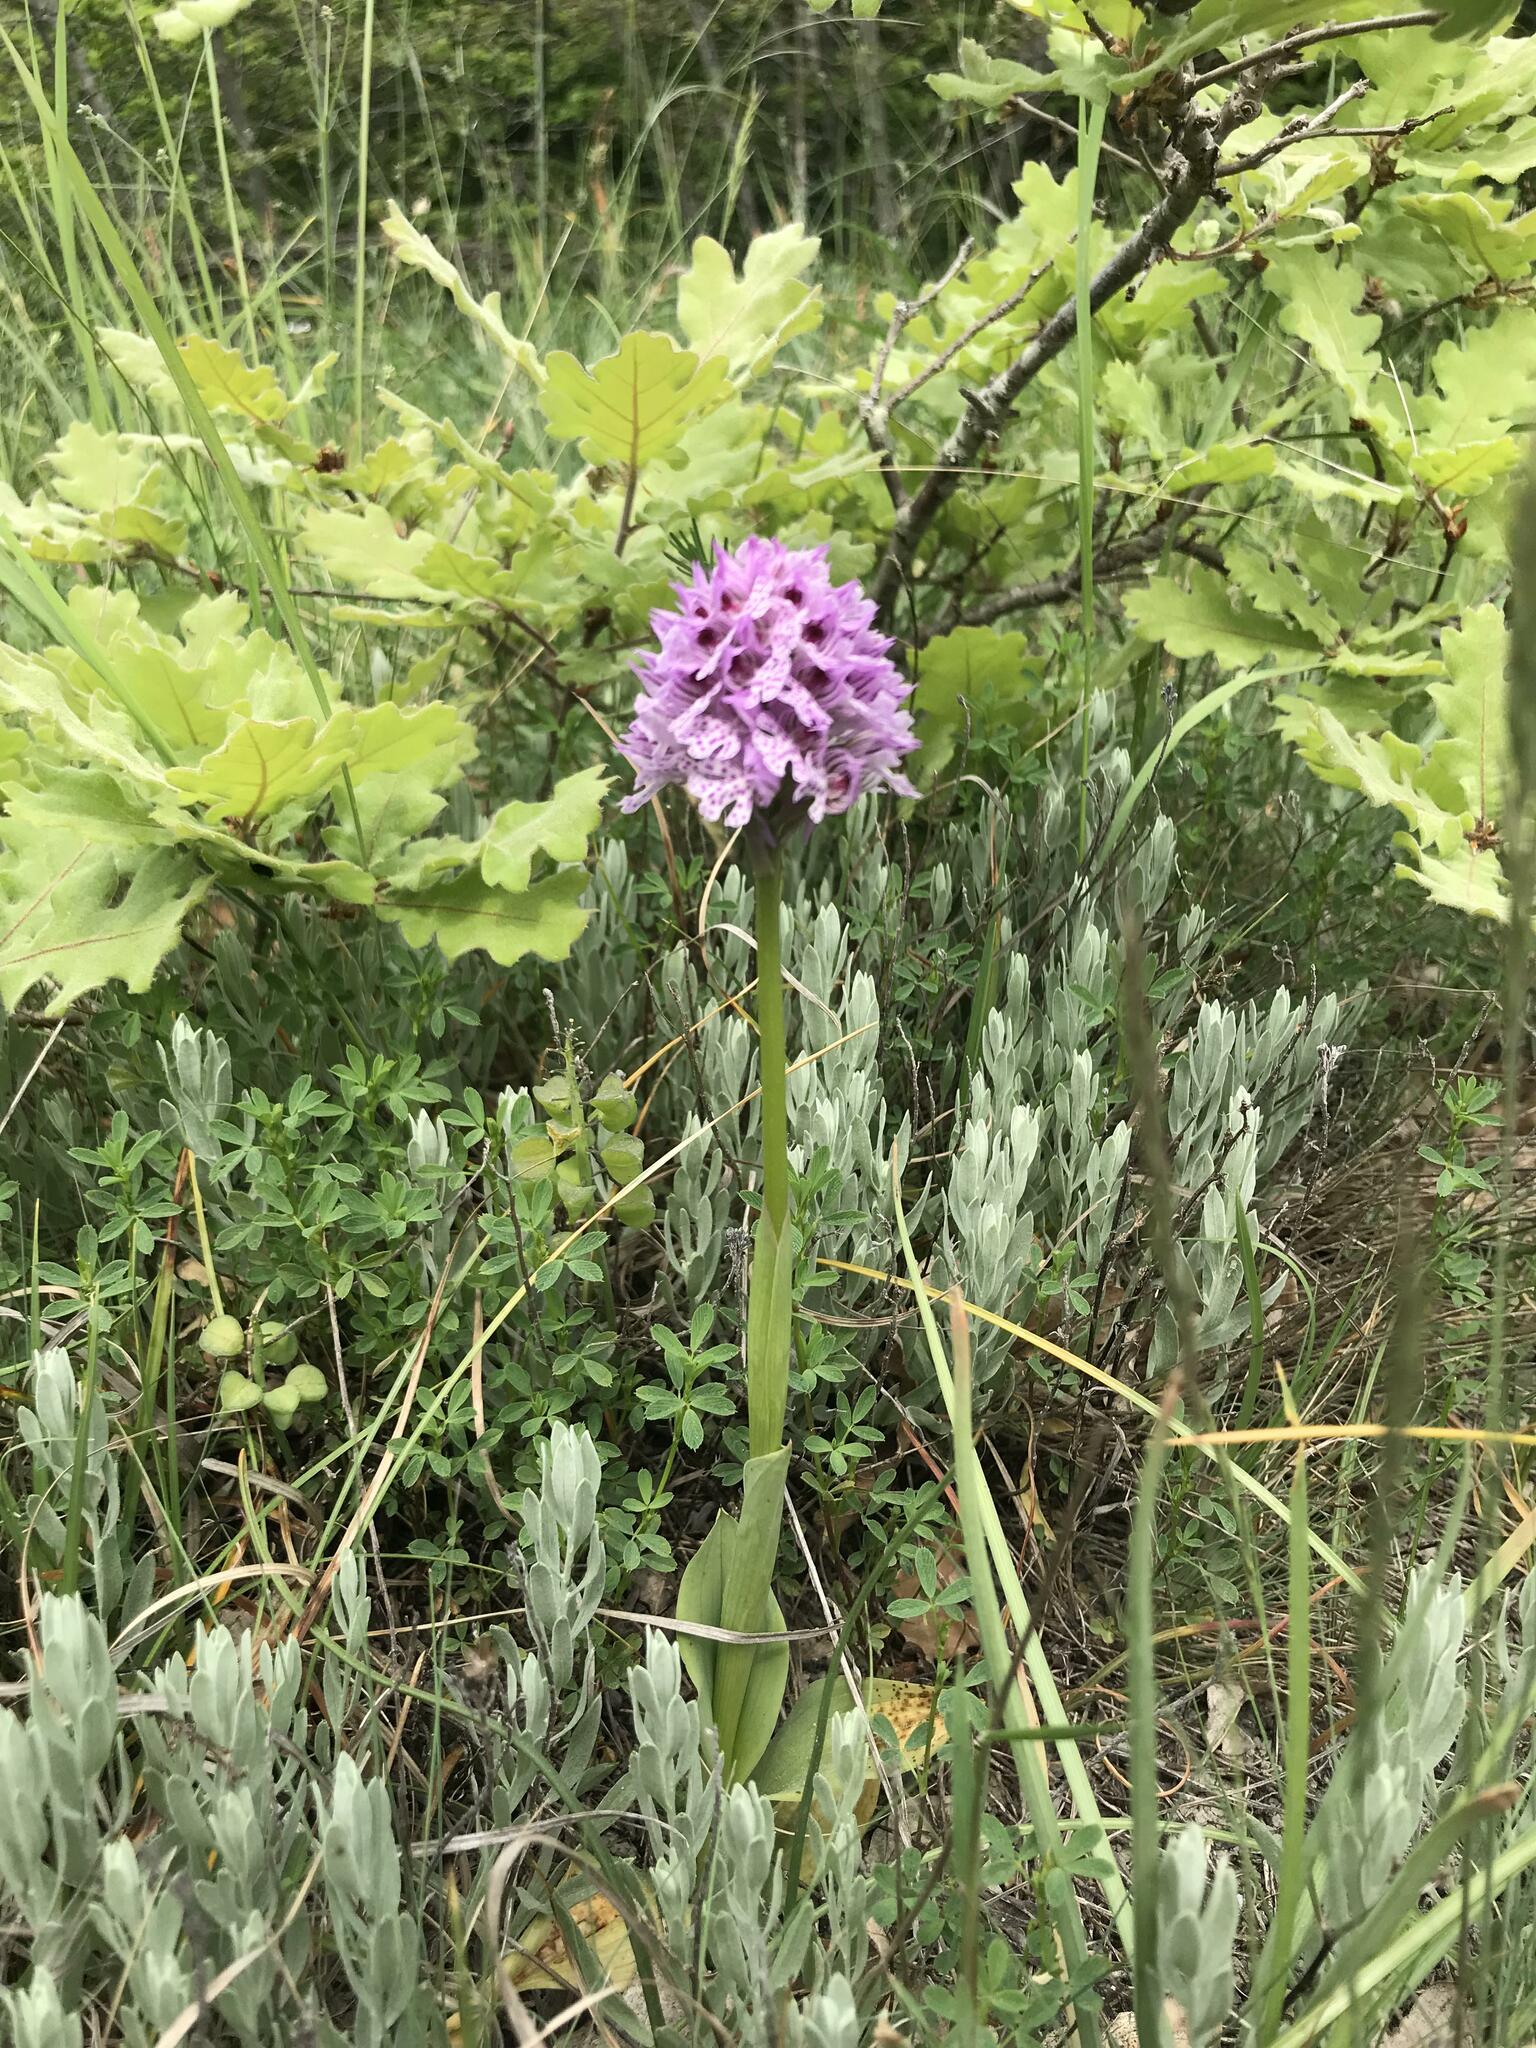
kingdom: Plantae
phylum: Tracheophyta
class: Liliopsida
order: Asparagales
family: Orchidaceae
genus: Neotinea
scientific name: Neotinea tridentata
